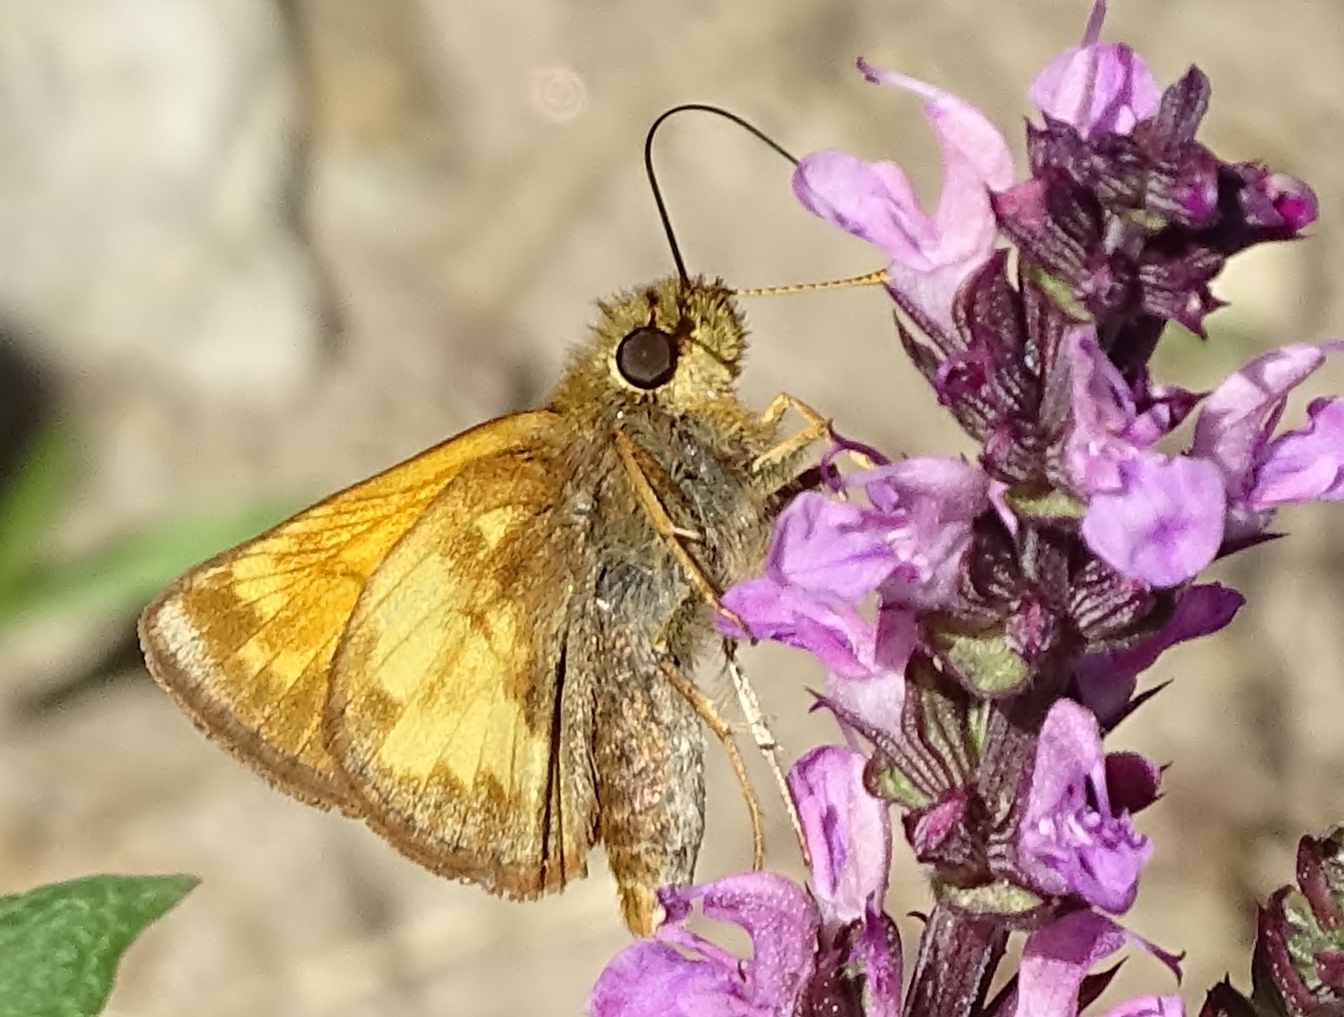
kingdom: Animalia
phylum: Arthropoda
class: Insecta
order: Lepidoptera
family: Hesperiidae
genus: Lon
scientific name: Lon hobomok
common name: Hobomok skipper
